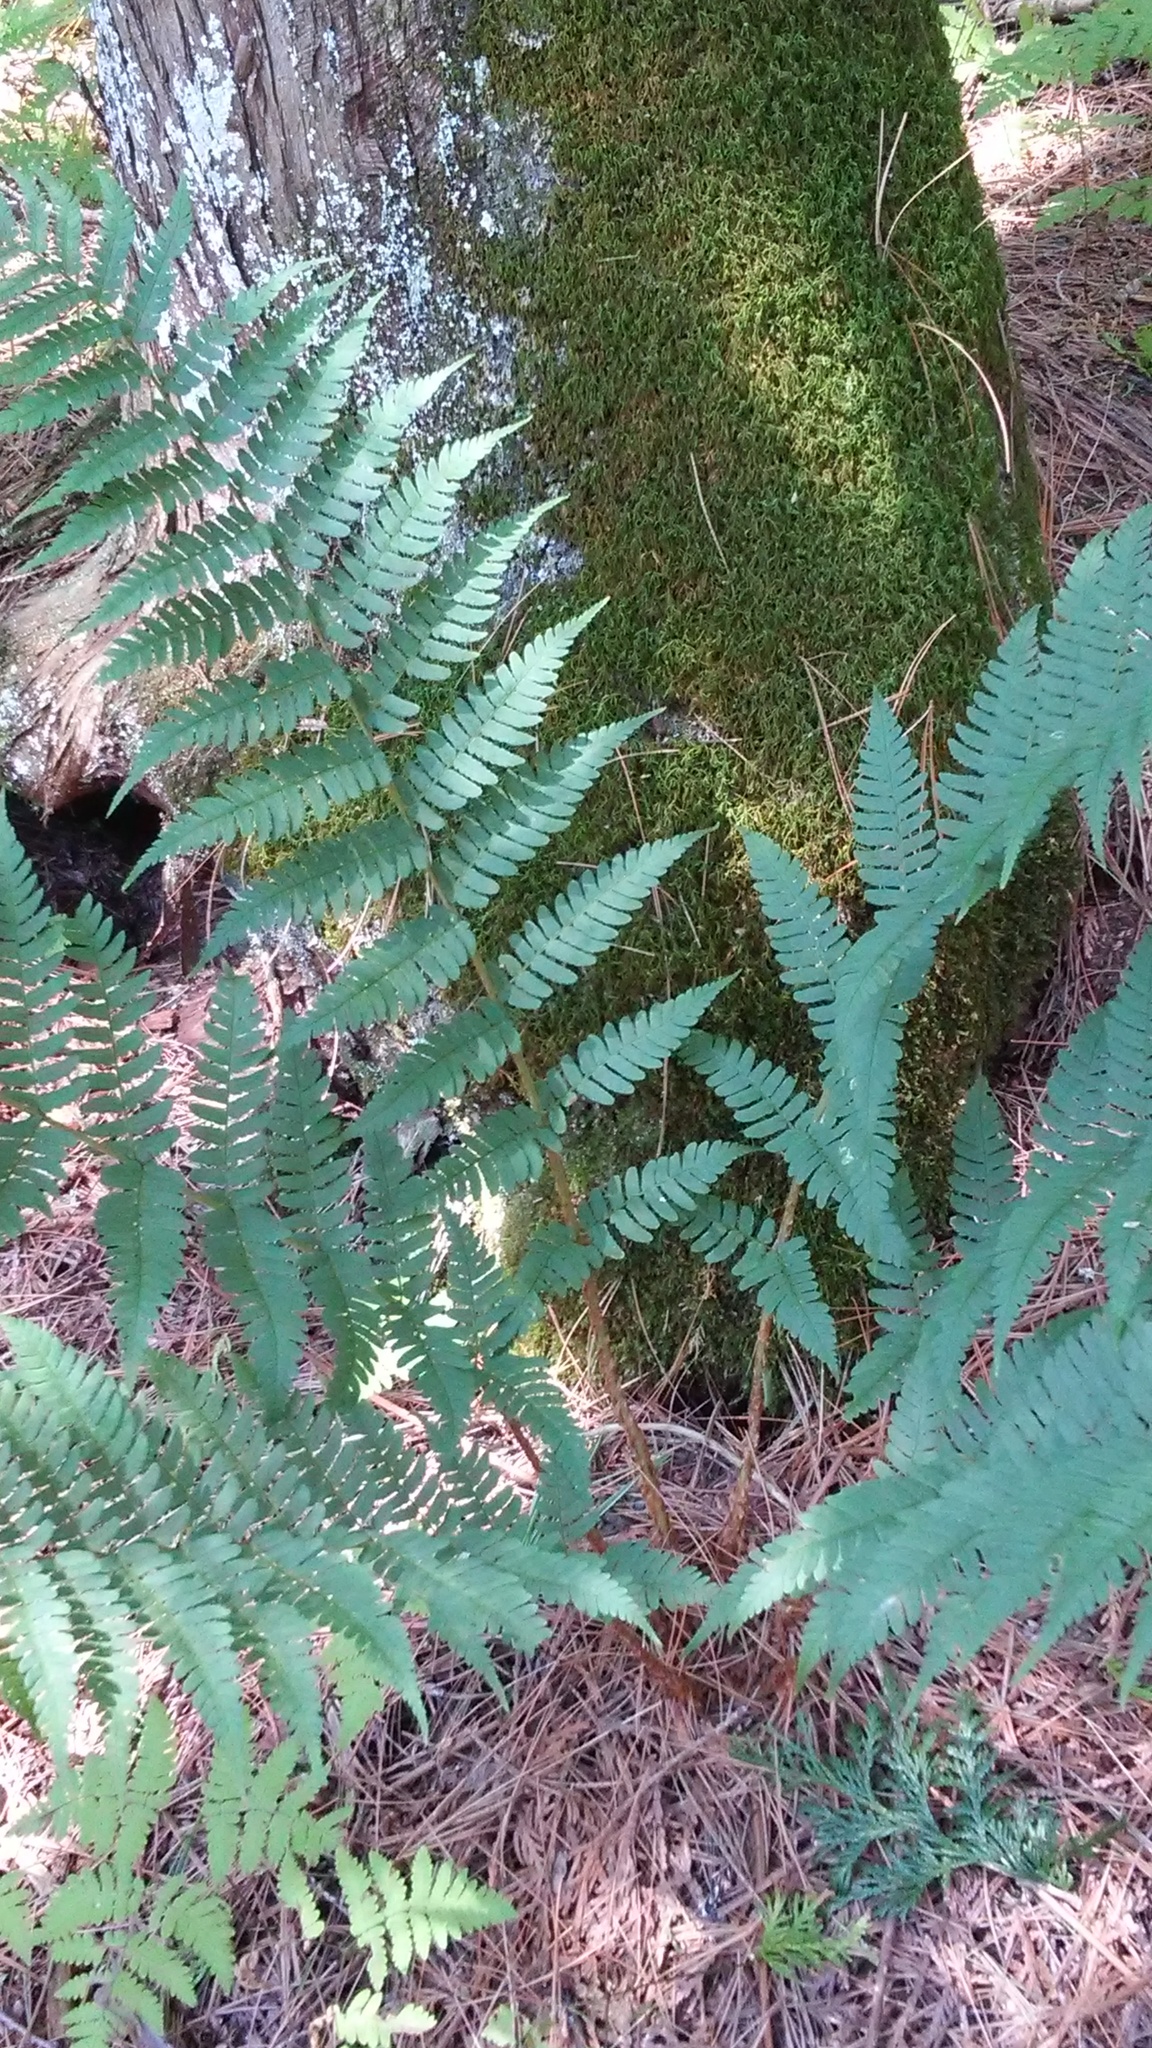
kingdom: Plantae
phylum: Tracheophyta
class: Polypodiopsida
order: Polypodiales
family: Dryopteridaceae
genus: Dryopteris
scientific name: Dryopteris marginalis
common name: Marginal wood fern
